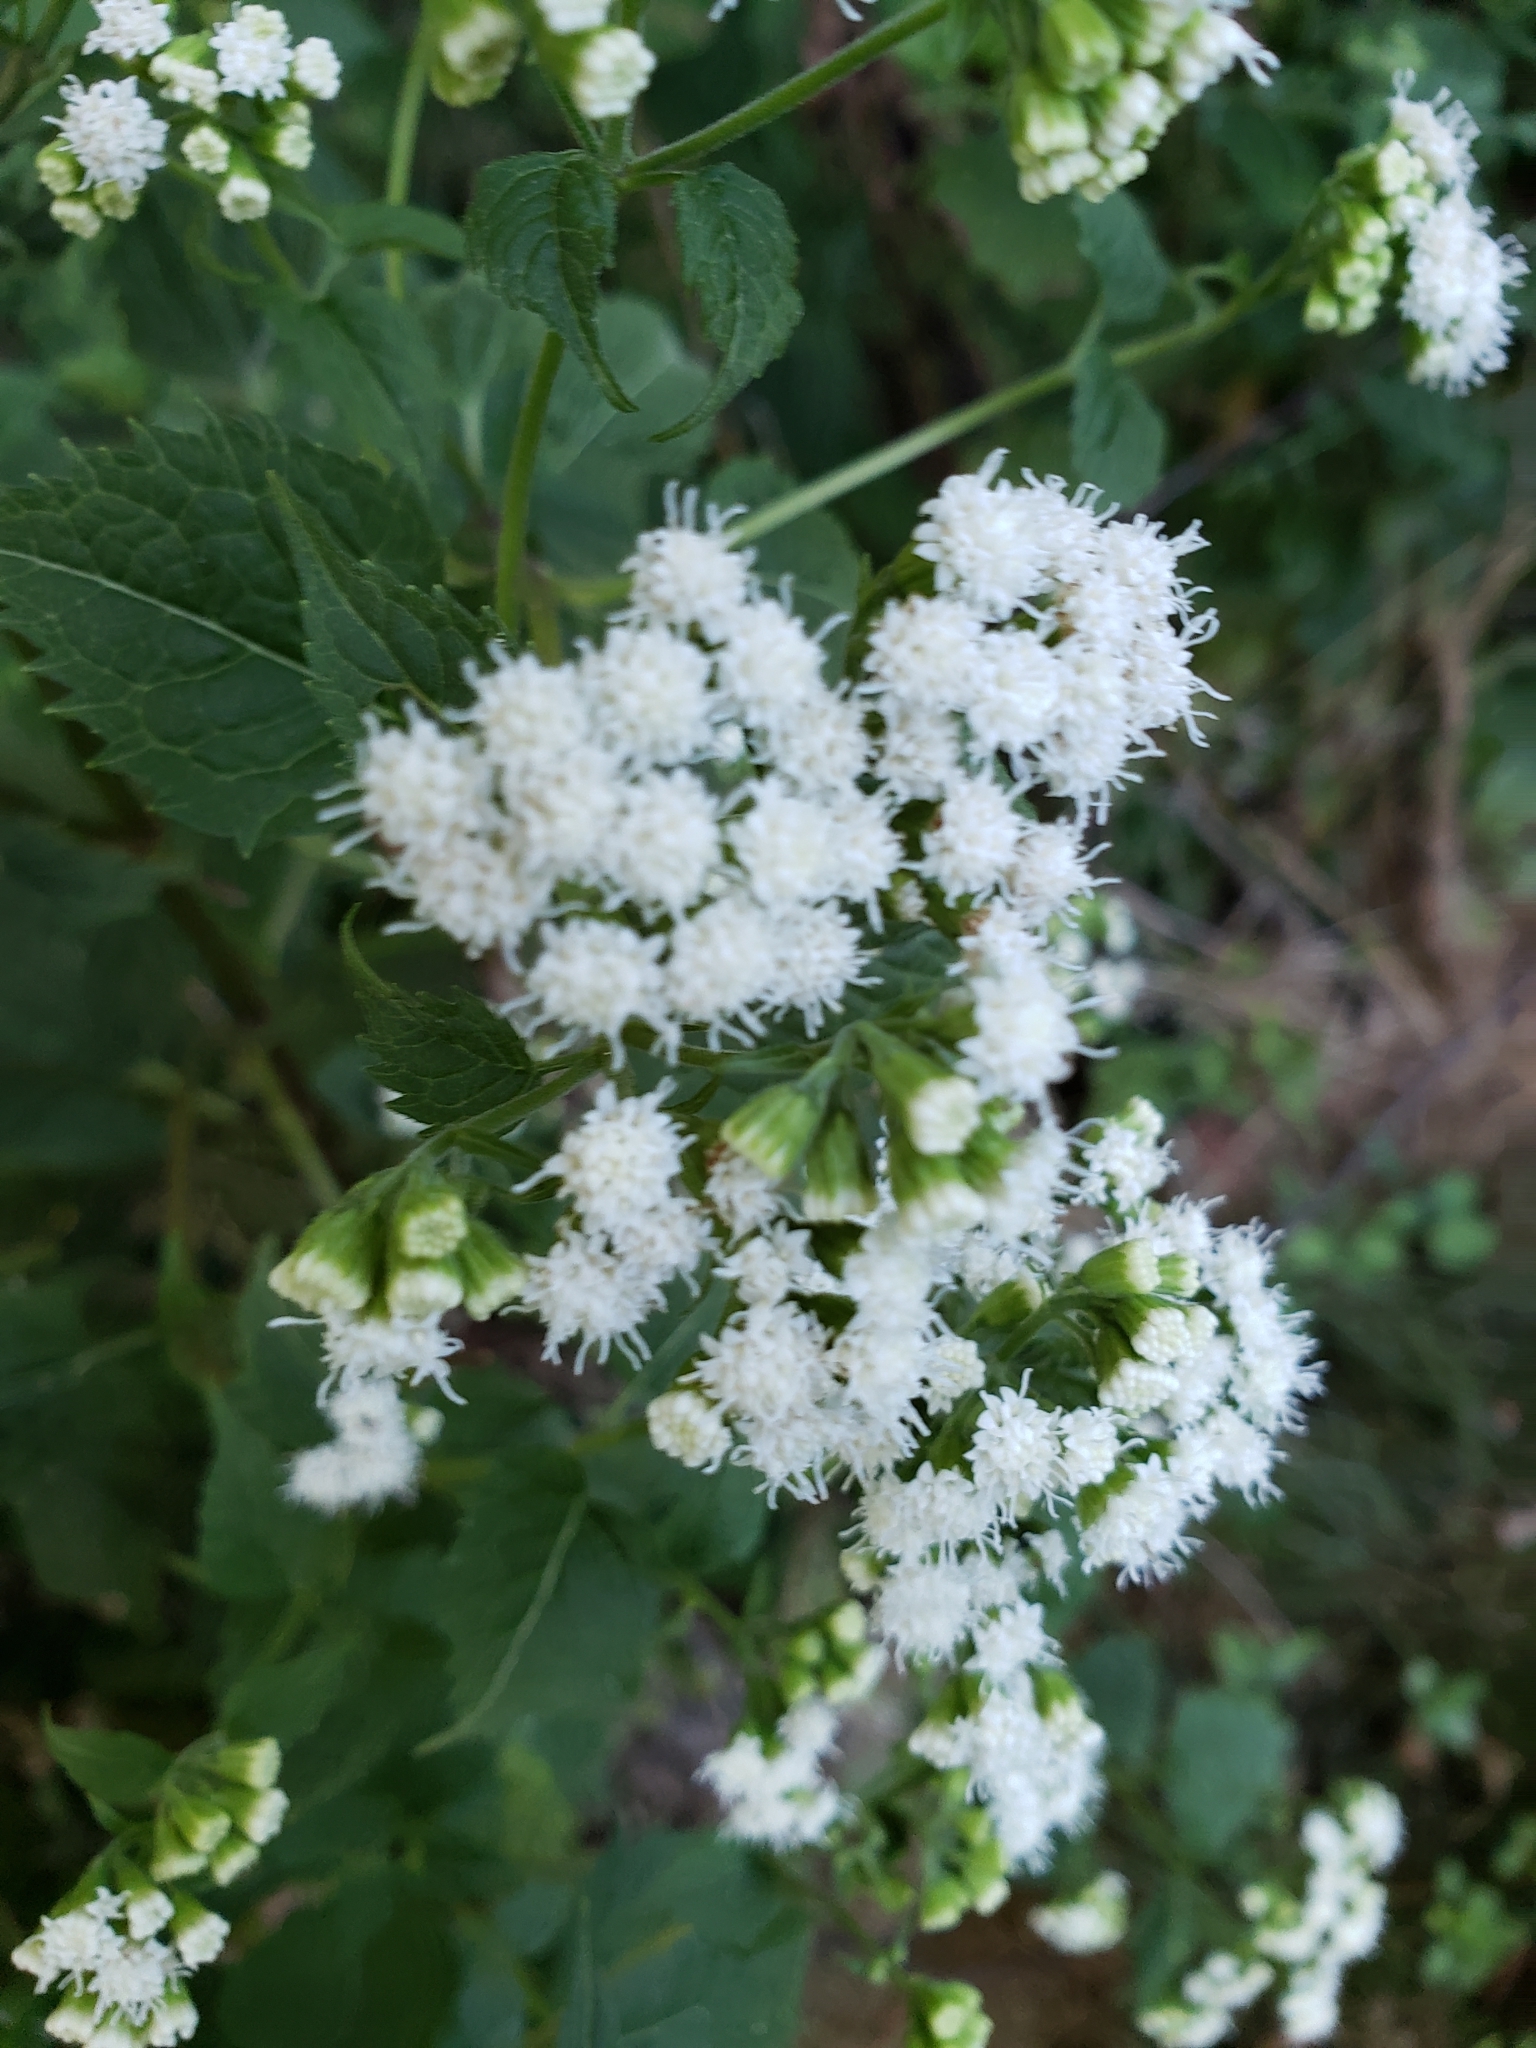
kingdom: Plantae
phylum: Tracheophyta
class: Magnoliopsida
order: Asterales
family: Asteraceae
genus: Ageratina
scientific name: Ageratina altissima
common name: White snakeroot
